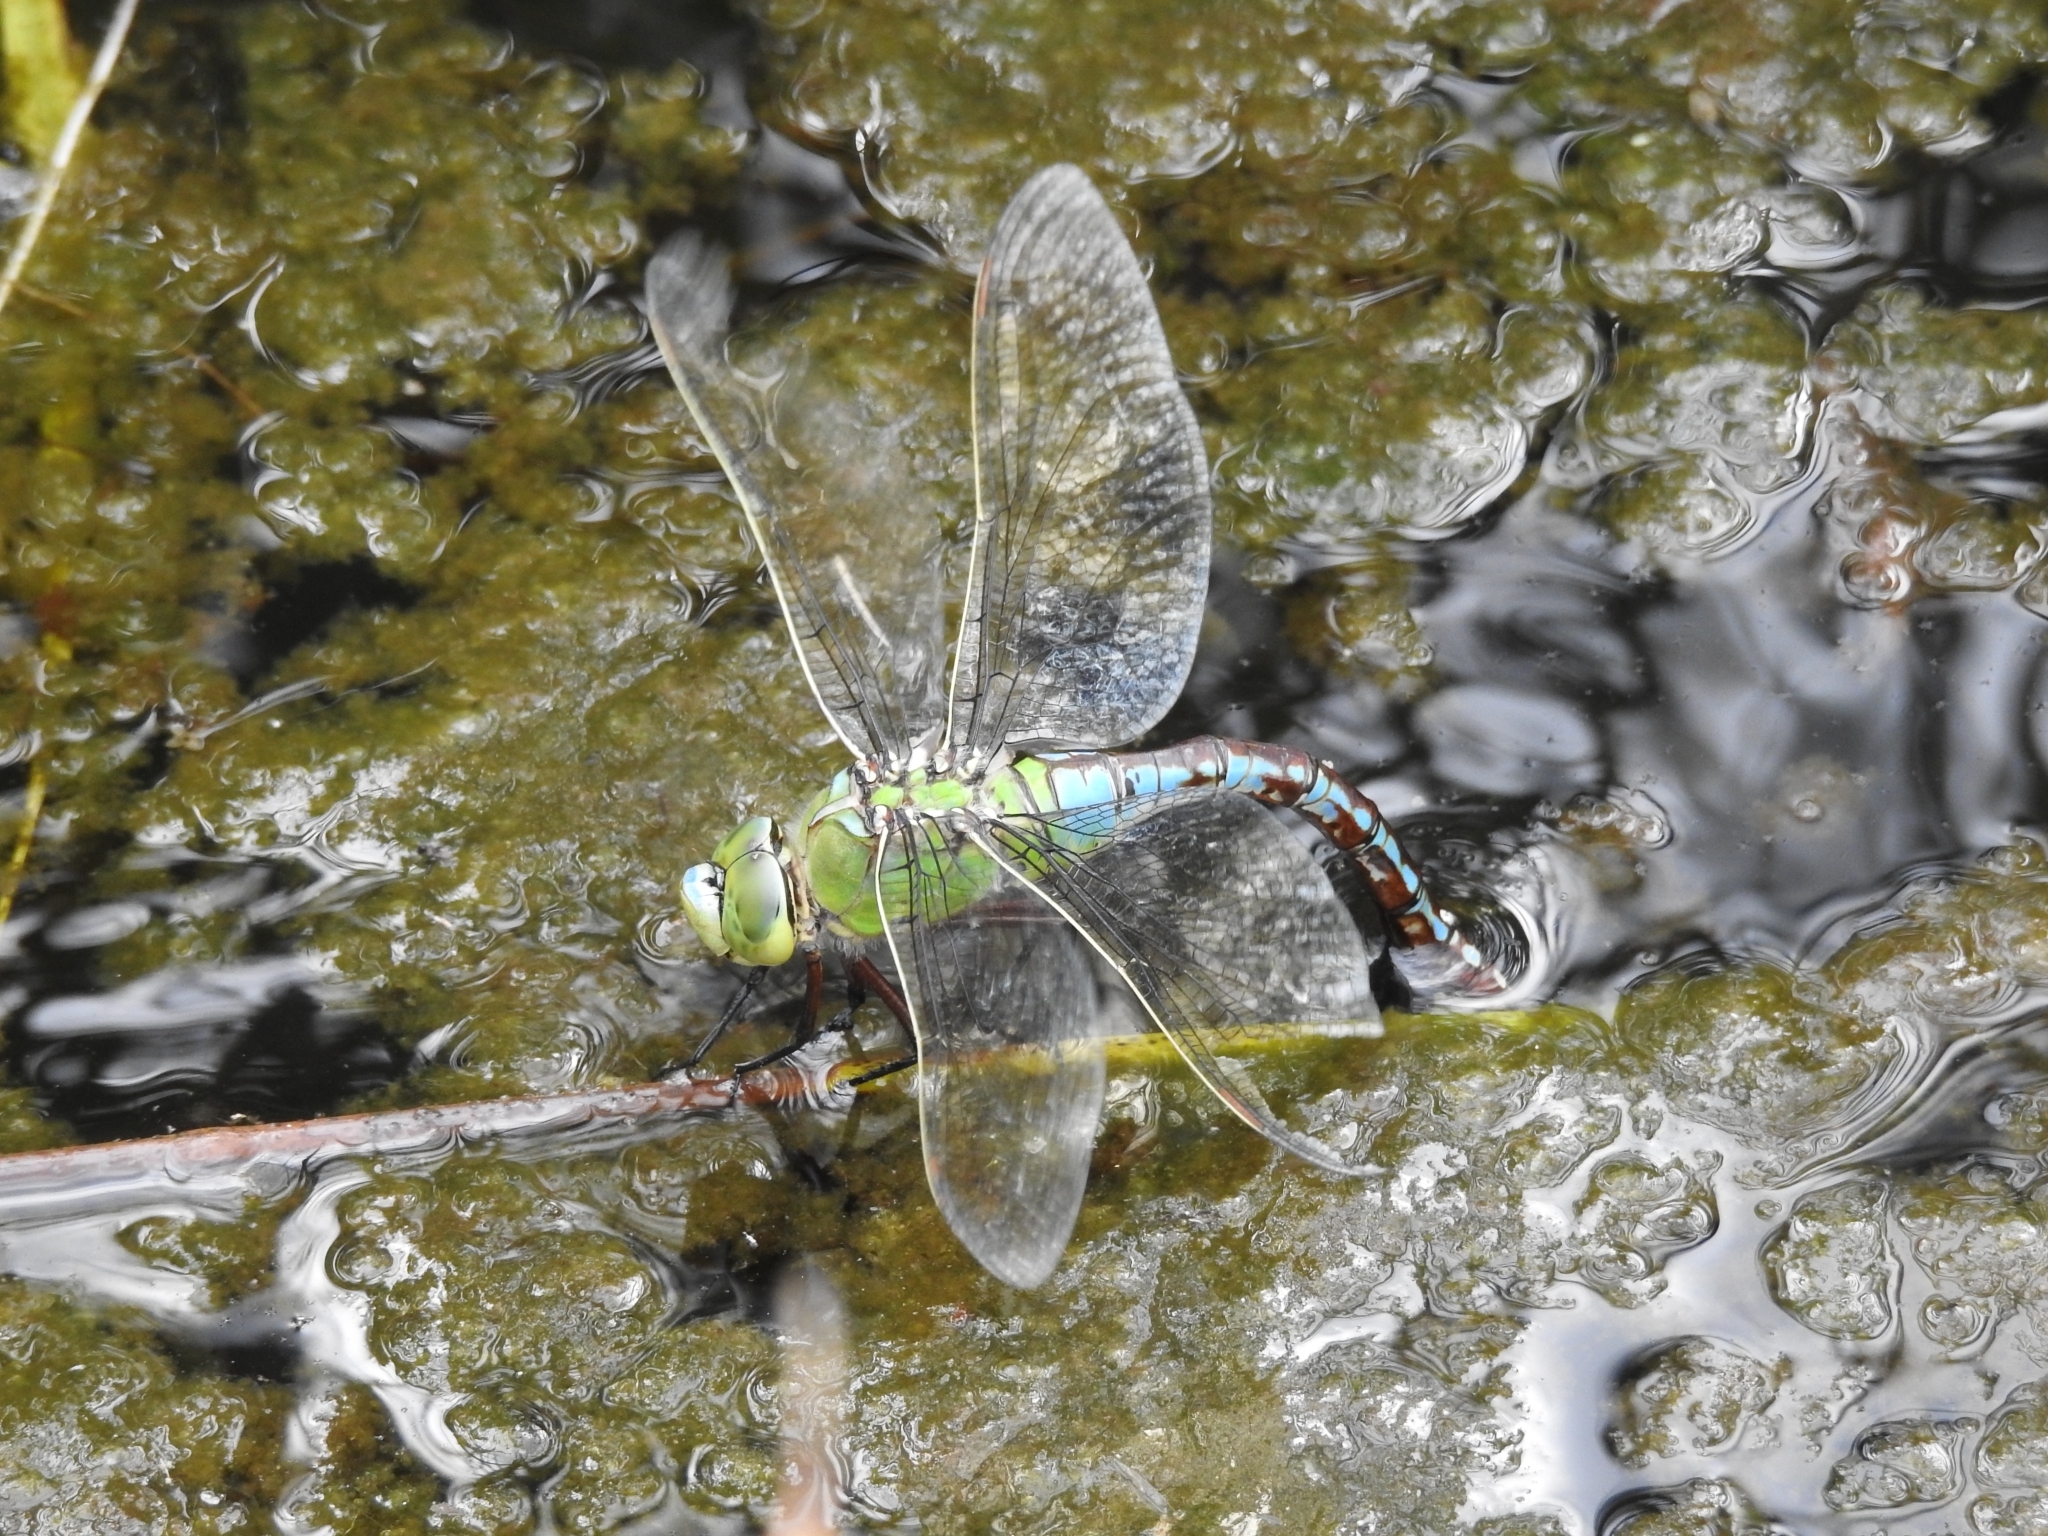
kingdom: Animalia
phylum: Arthropoda
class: Insecta
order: Odonata
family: Aeshnidae
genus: Anax
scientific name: Anax imperator
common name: Emperor dragonfly
